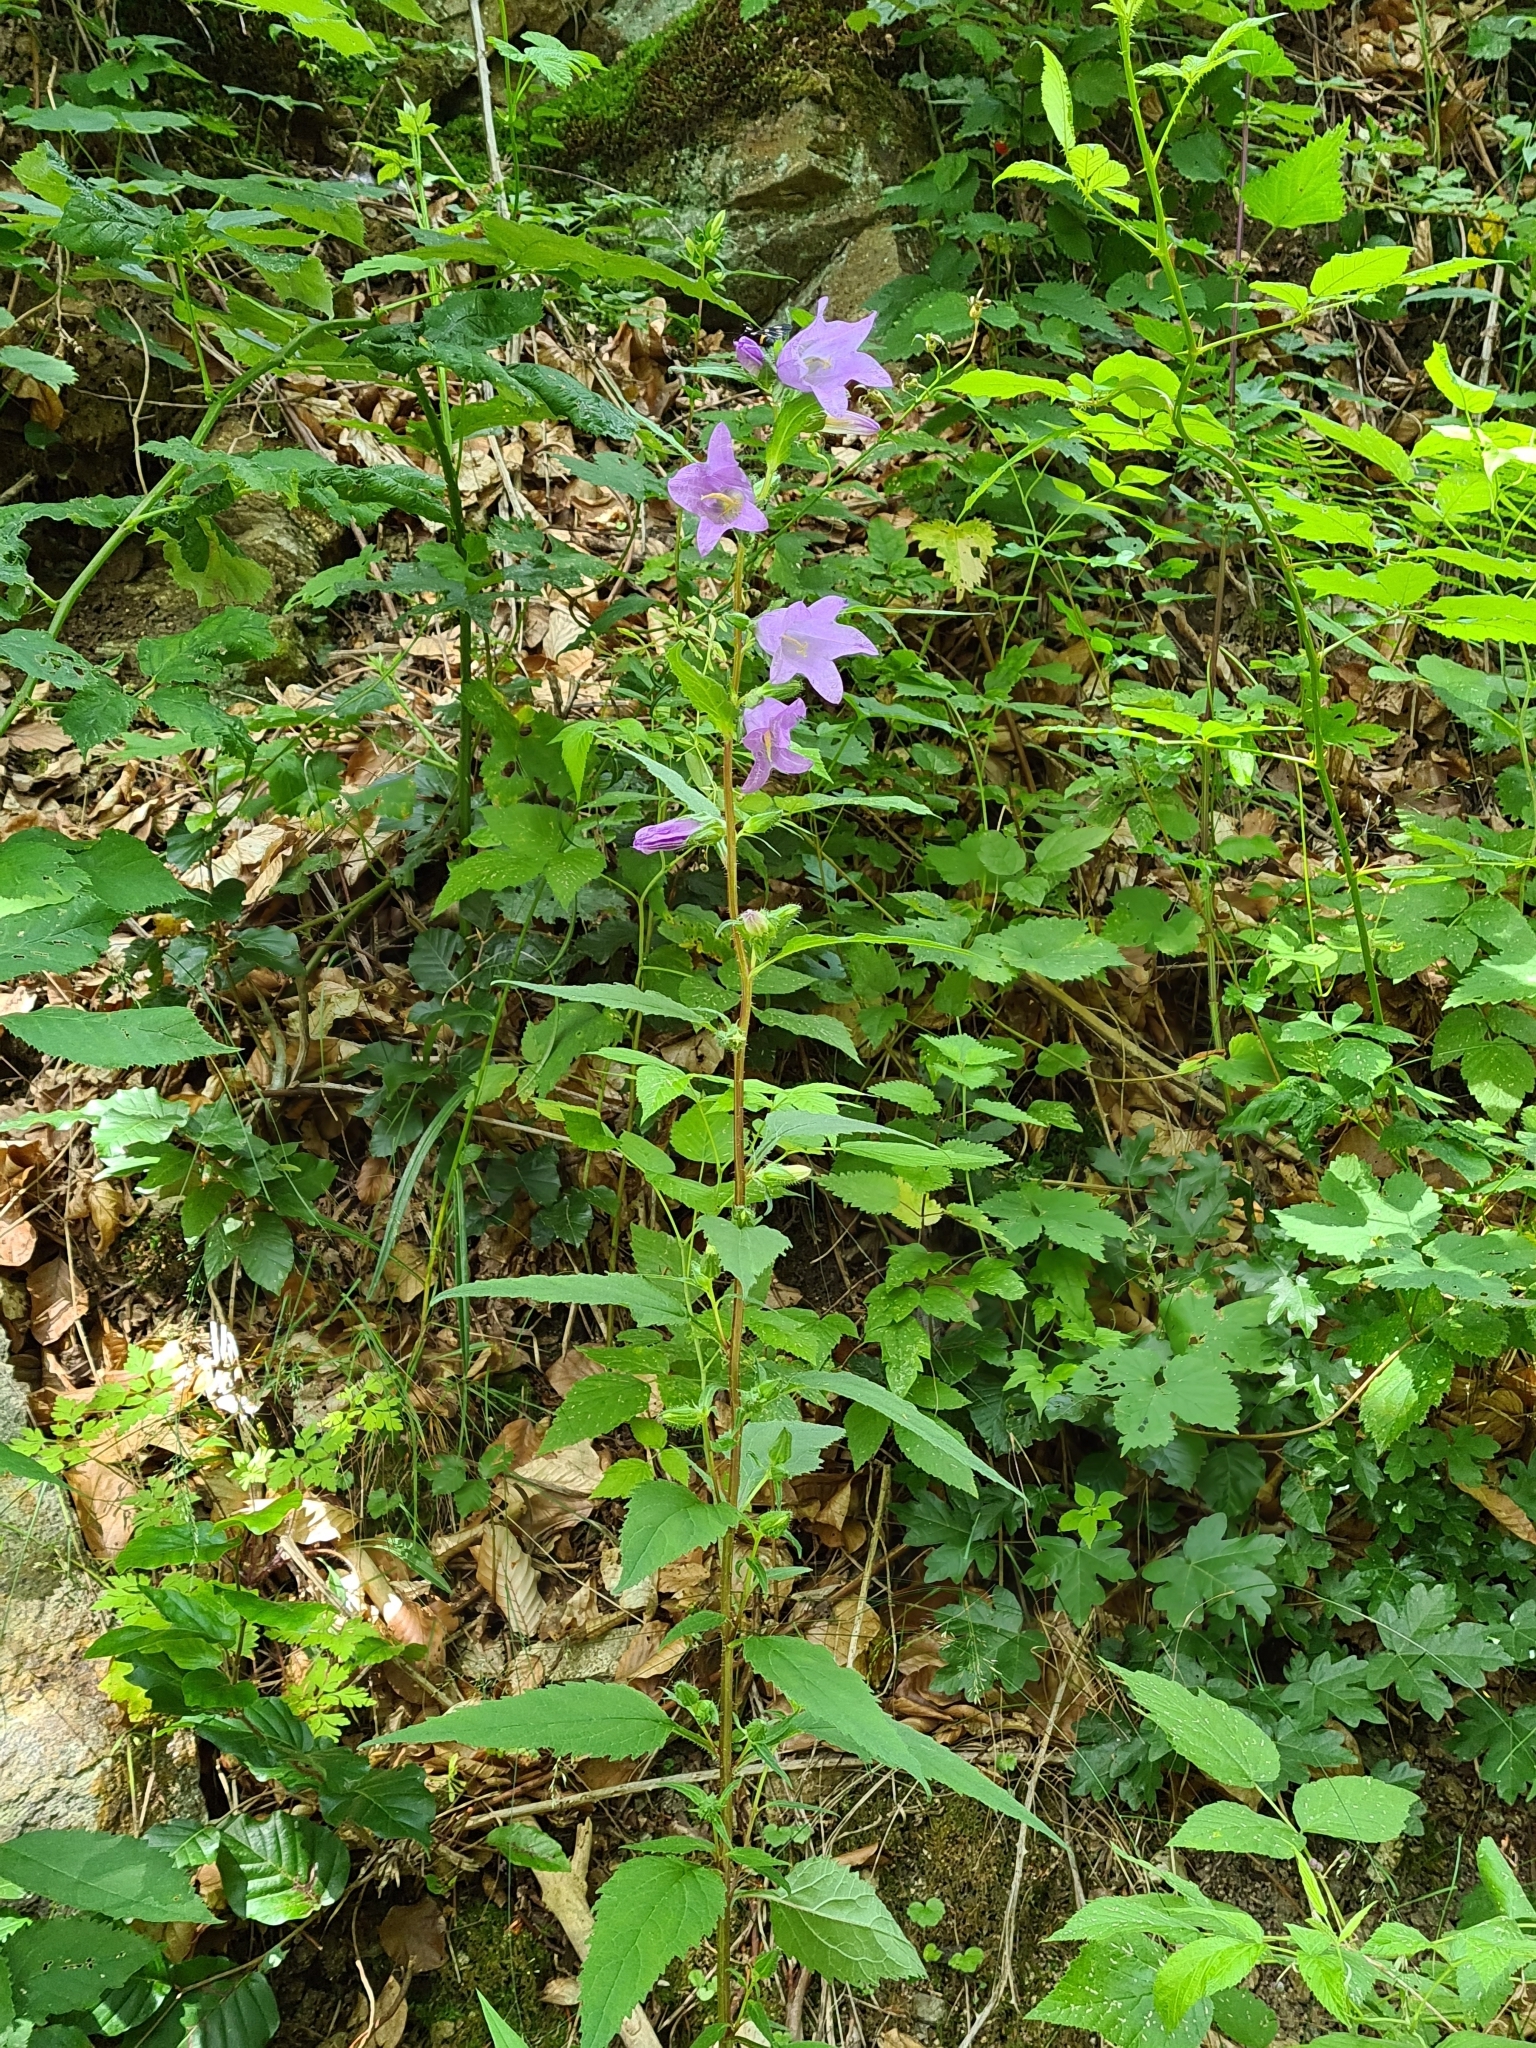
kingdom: Plantae
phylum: Tracheophyta
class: Magnoliopsida
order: Asterales
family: Campanulaceae
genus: Campanula
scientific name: Campanula trachelium
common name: Nettle-leaved bellflower
